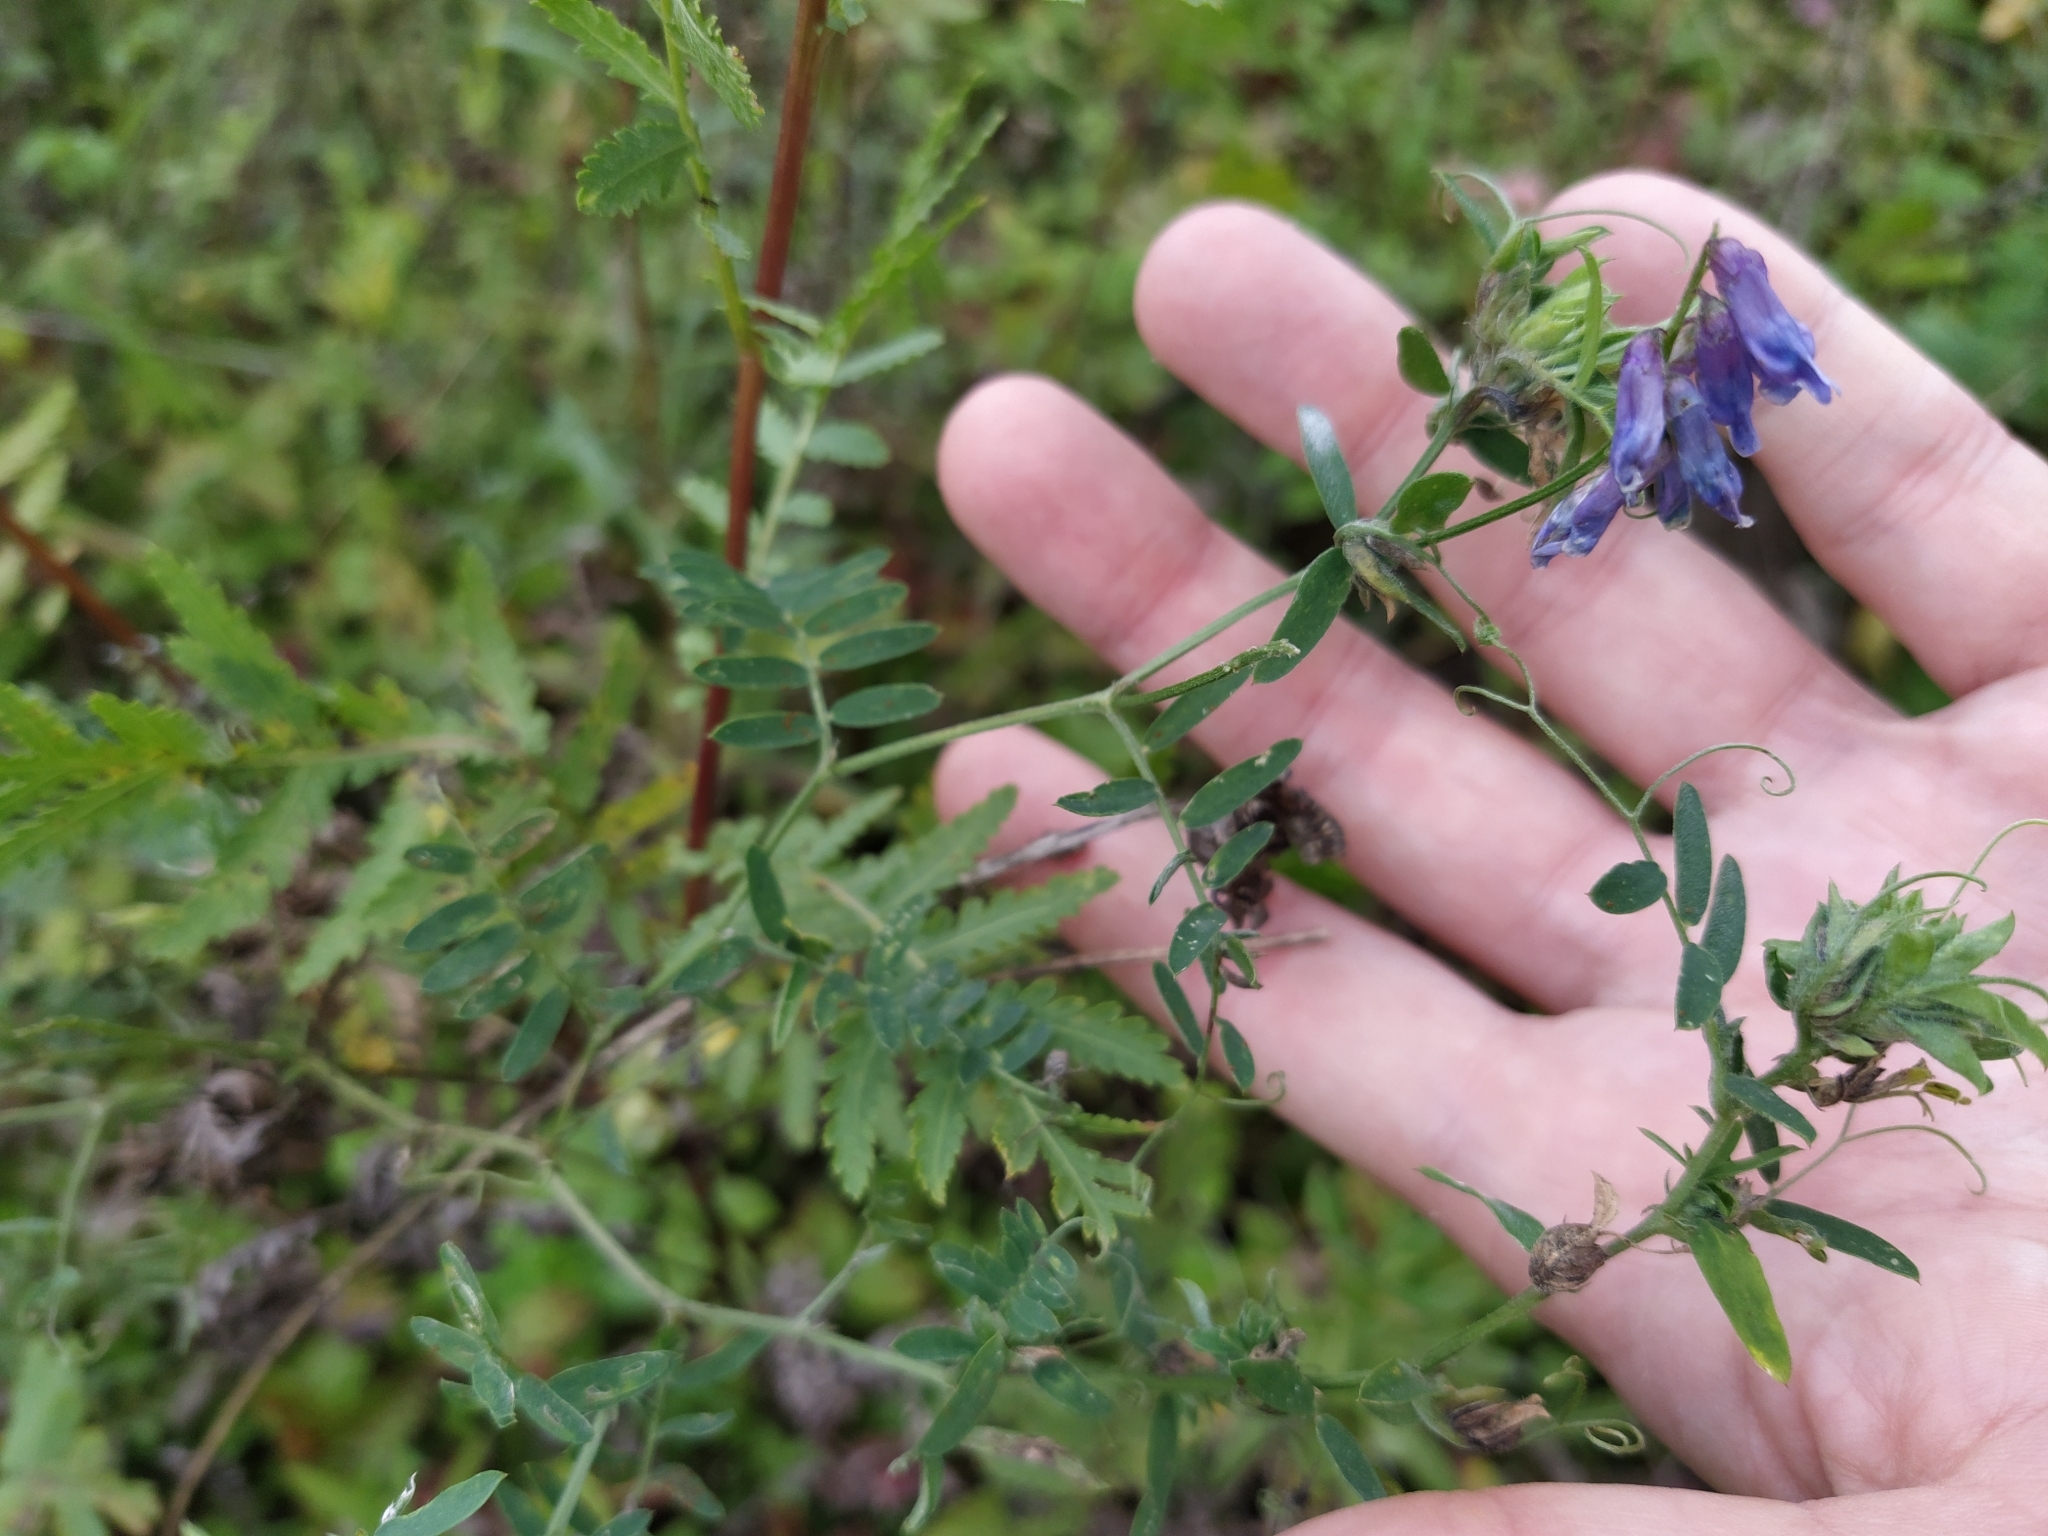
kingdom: Plantae
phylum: Tracheophyta
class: Magnoliopsida
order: Fabales
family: Fabaceae
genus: Vicia
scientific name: Vicia cracca
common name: Bird vetch
